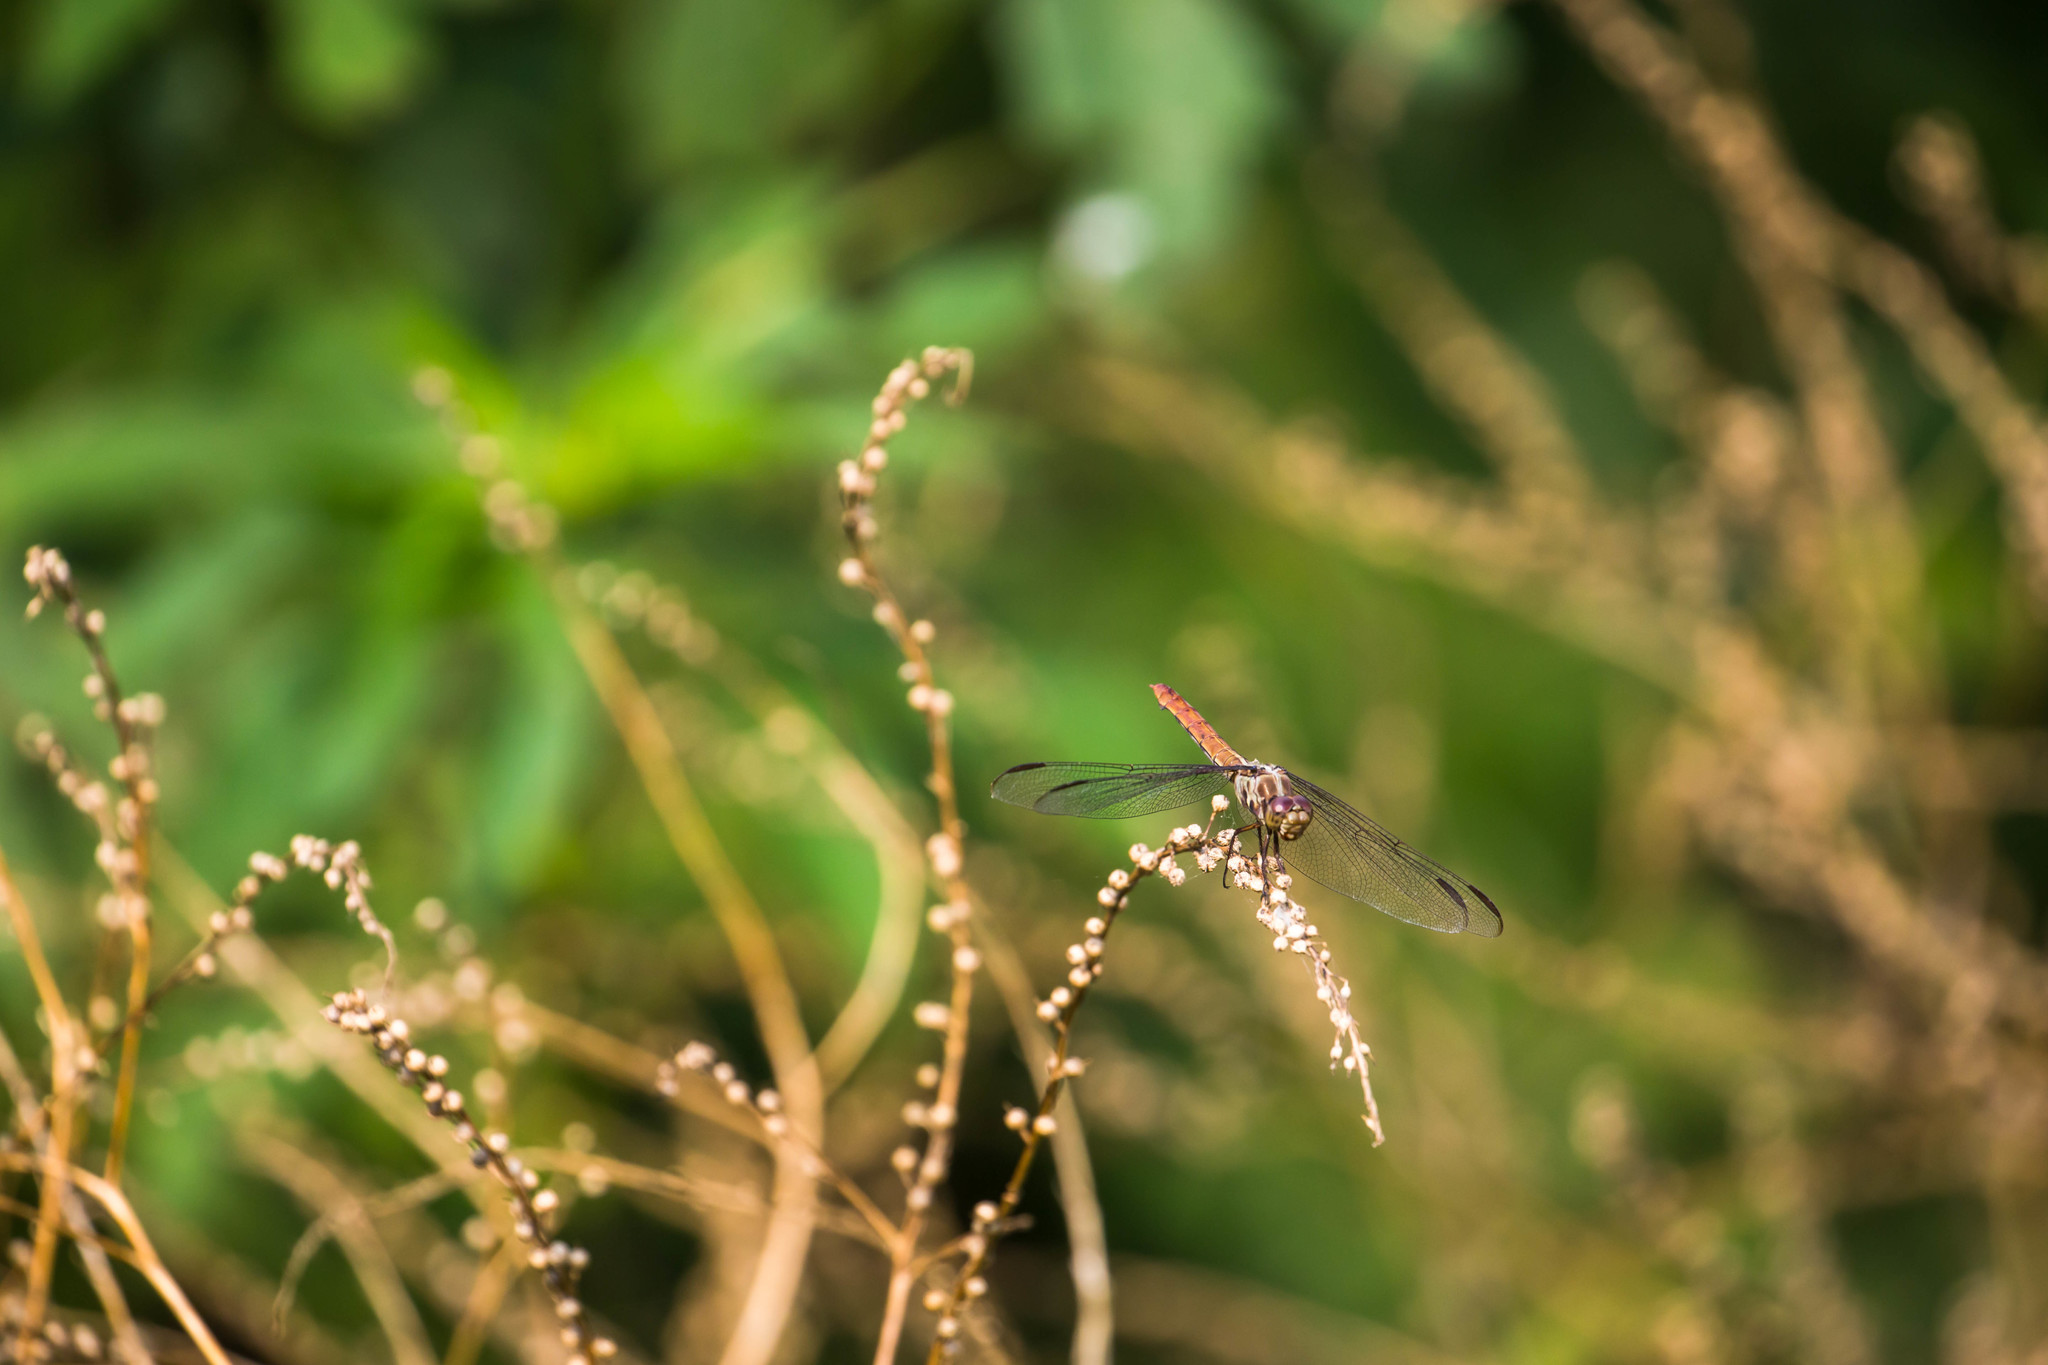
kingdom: Animalia
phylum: Arthropoda
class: Insecta
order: Odonata
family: Libellulidae
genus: Orthemis
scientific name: Orthemis ferruginea
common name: Roseate skimmer
